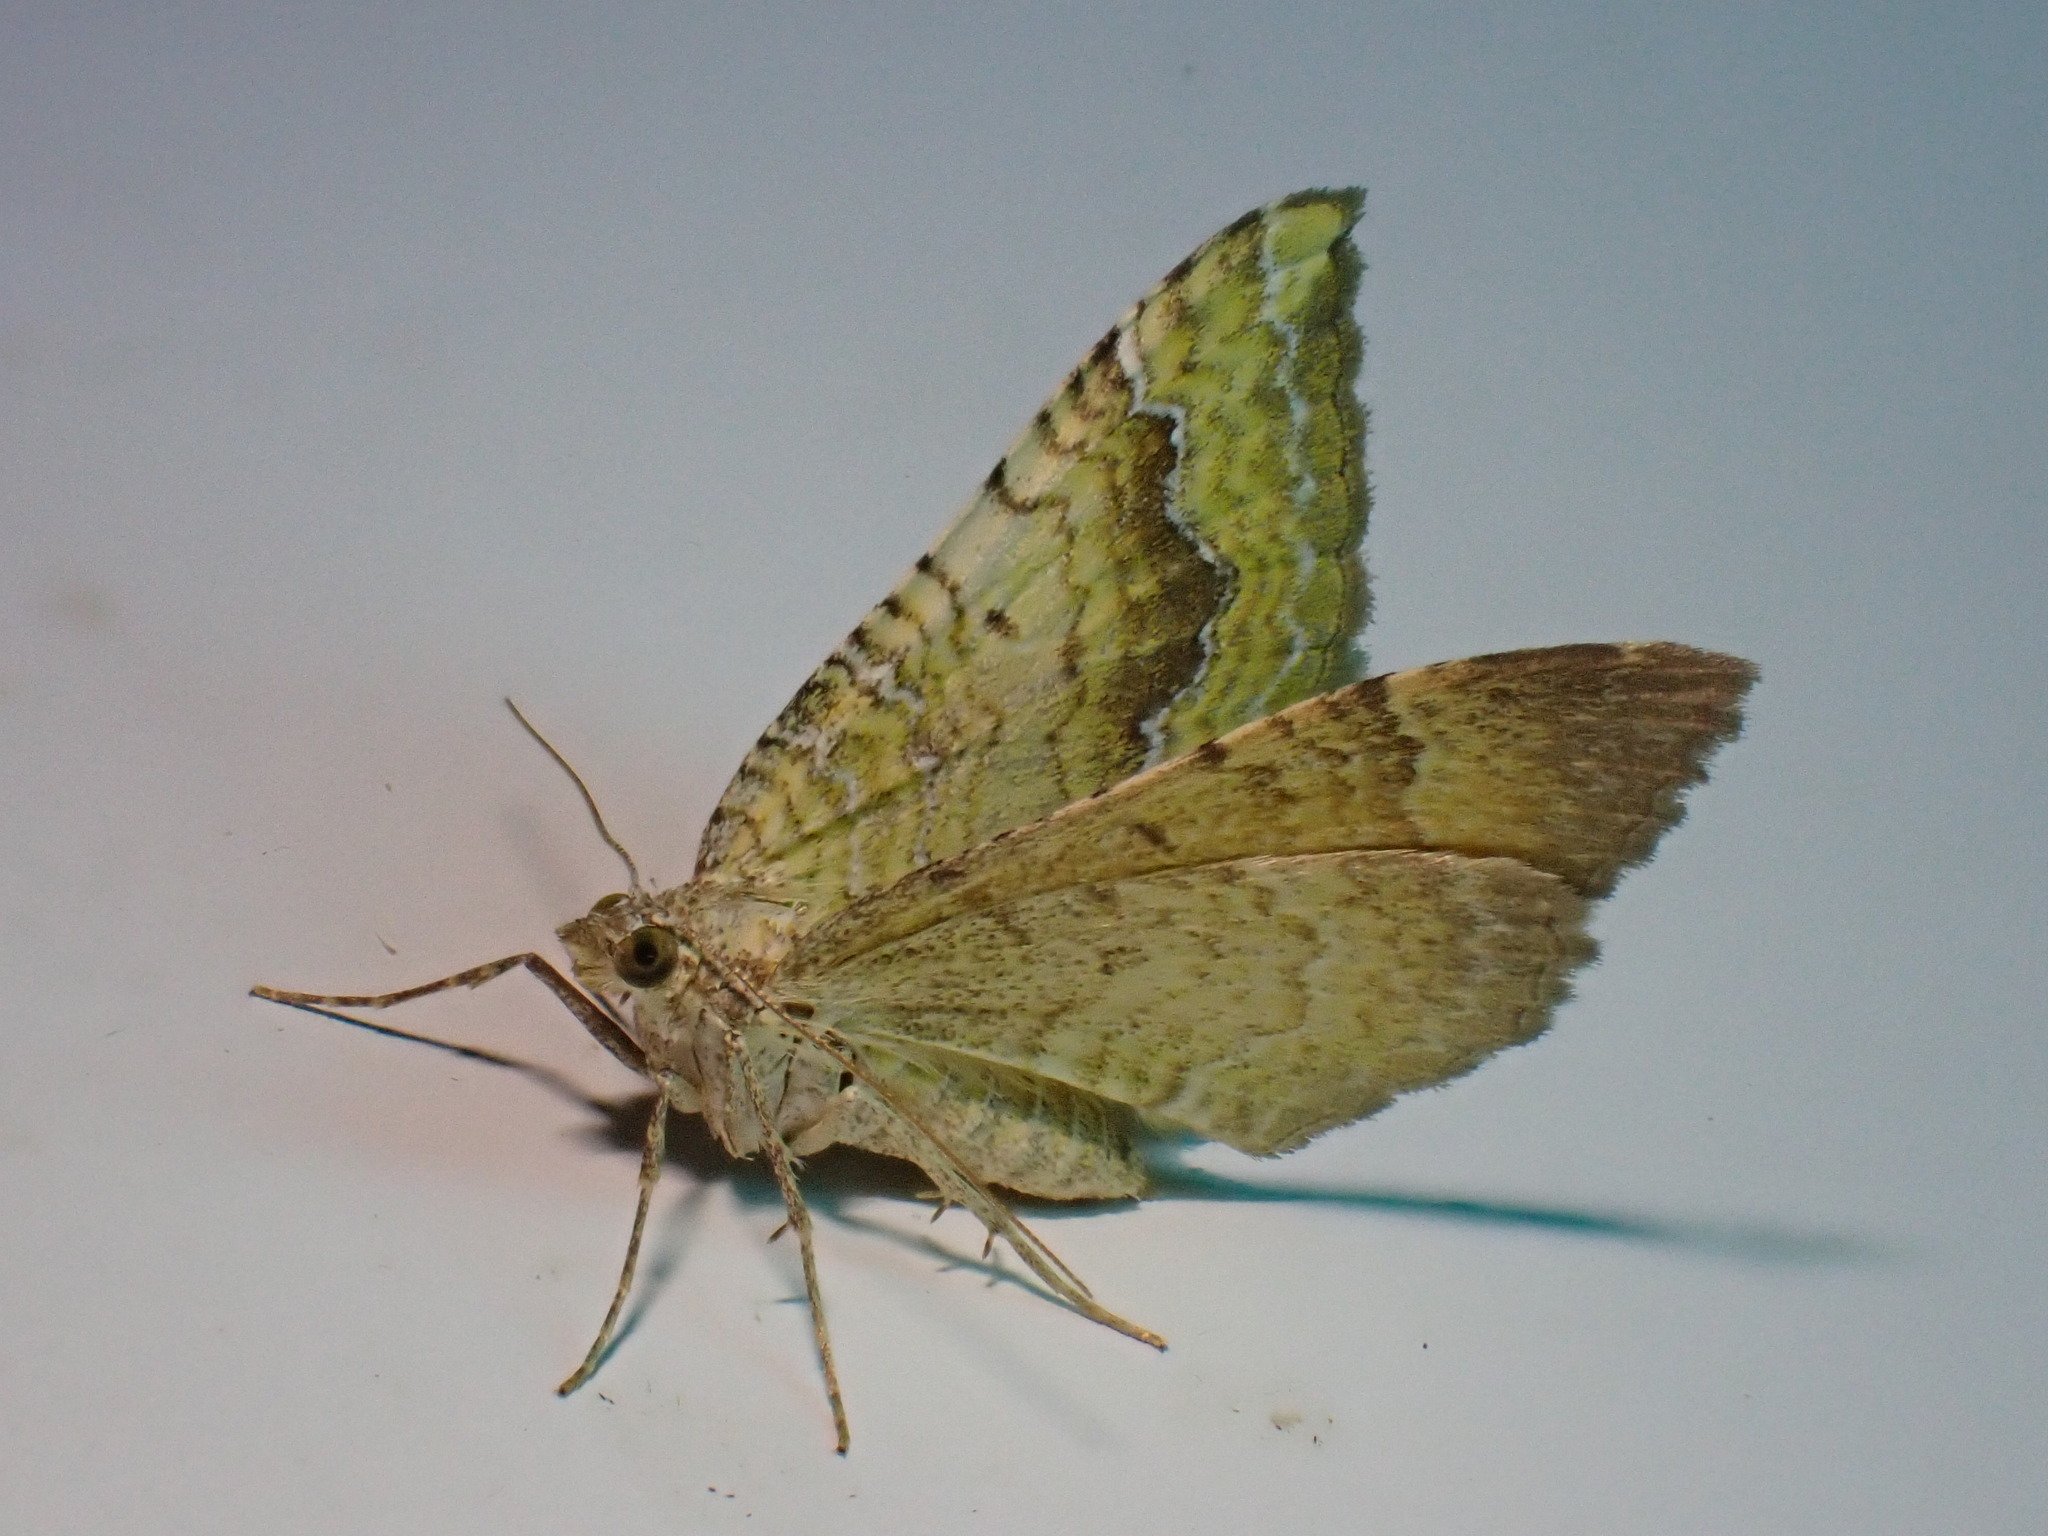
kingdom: Animalia
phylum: Arthropoda
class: Insecta
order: Lepidoptera
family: Geometridae
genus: Camptogramma
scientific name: Camptogramma bilineata
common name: Yellow shell
